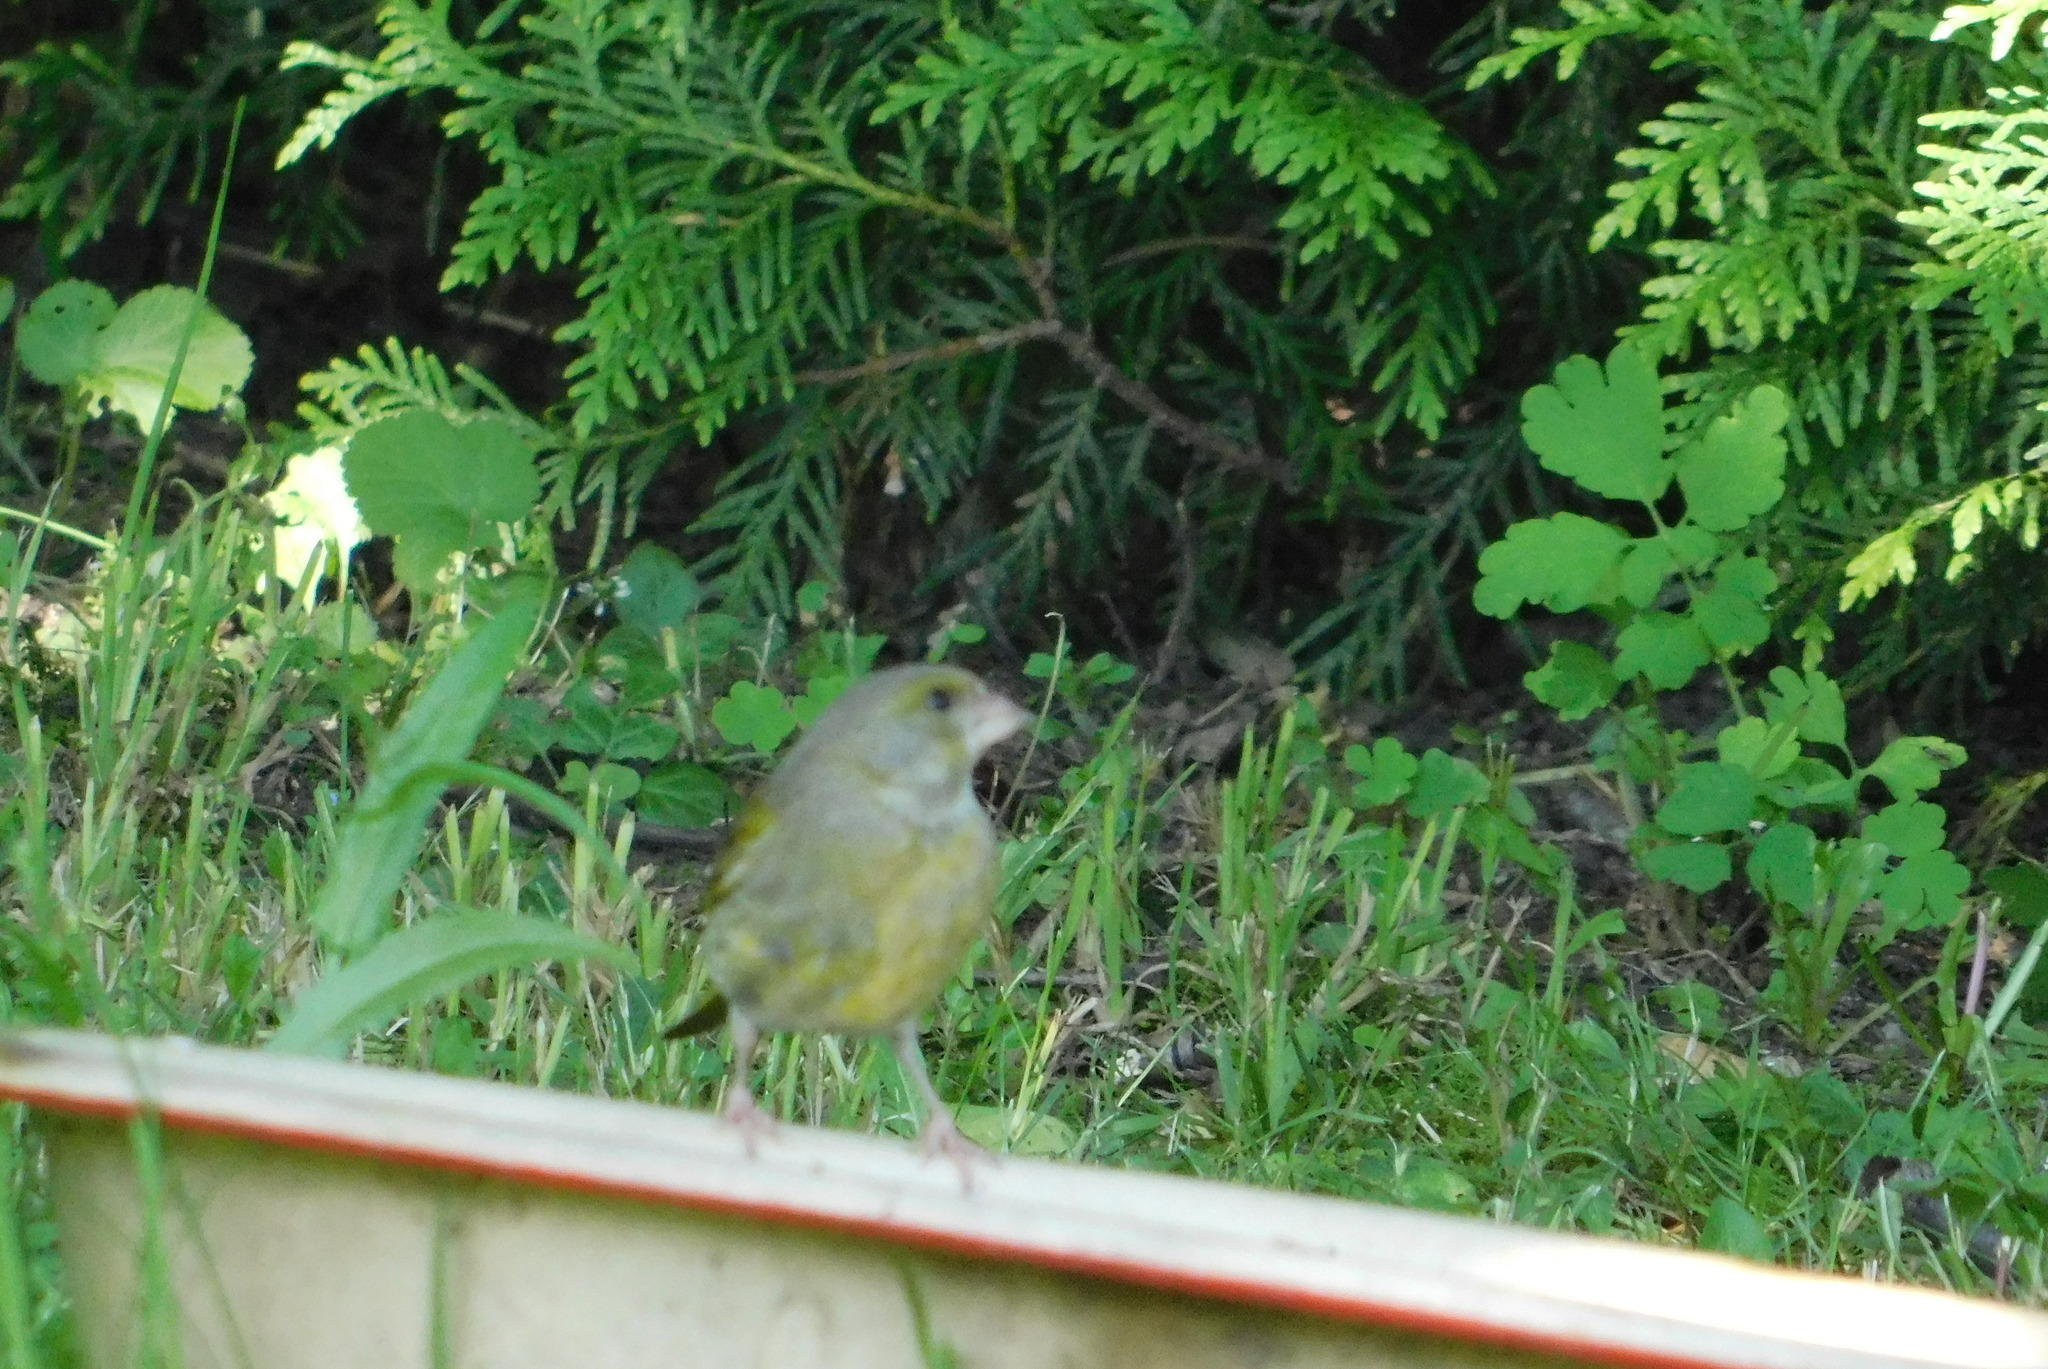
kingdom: Plantae
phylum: Tracheophyta
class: Liliopsida
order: Poales
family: Poaceae
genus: Chloris
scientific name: Chloris chloris
